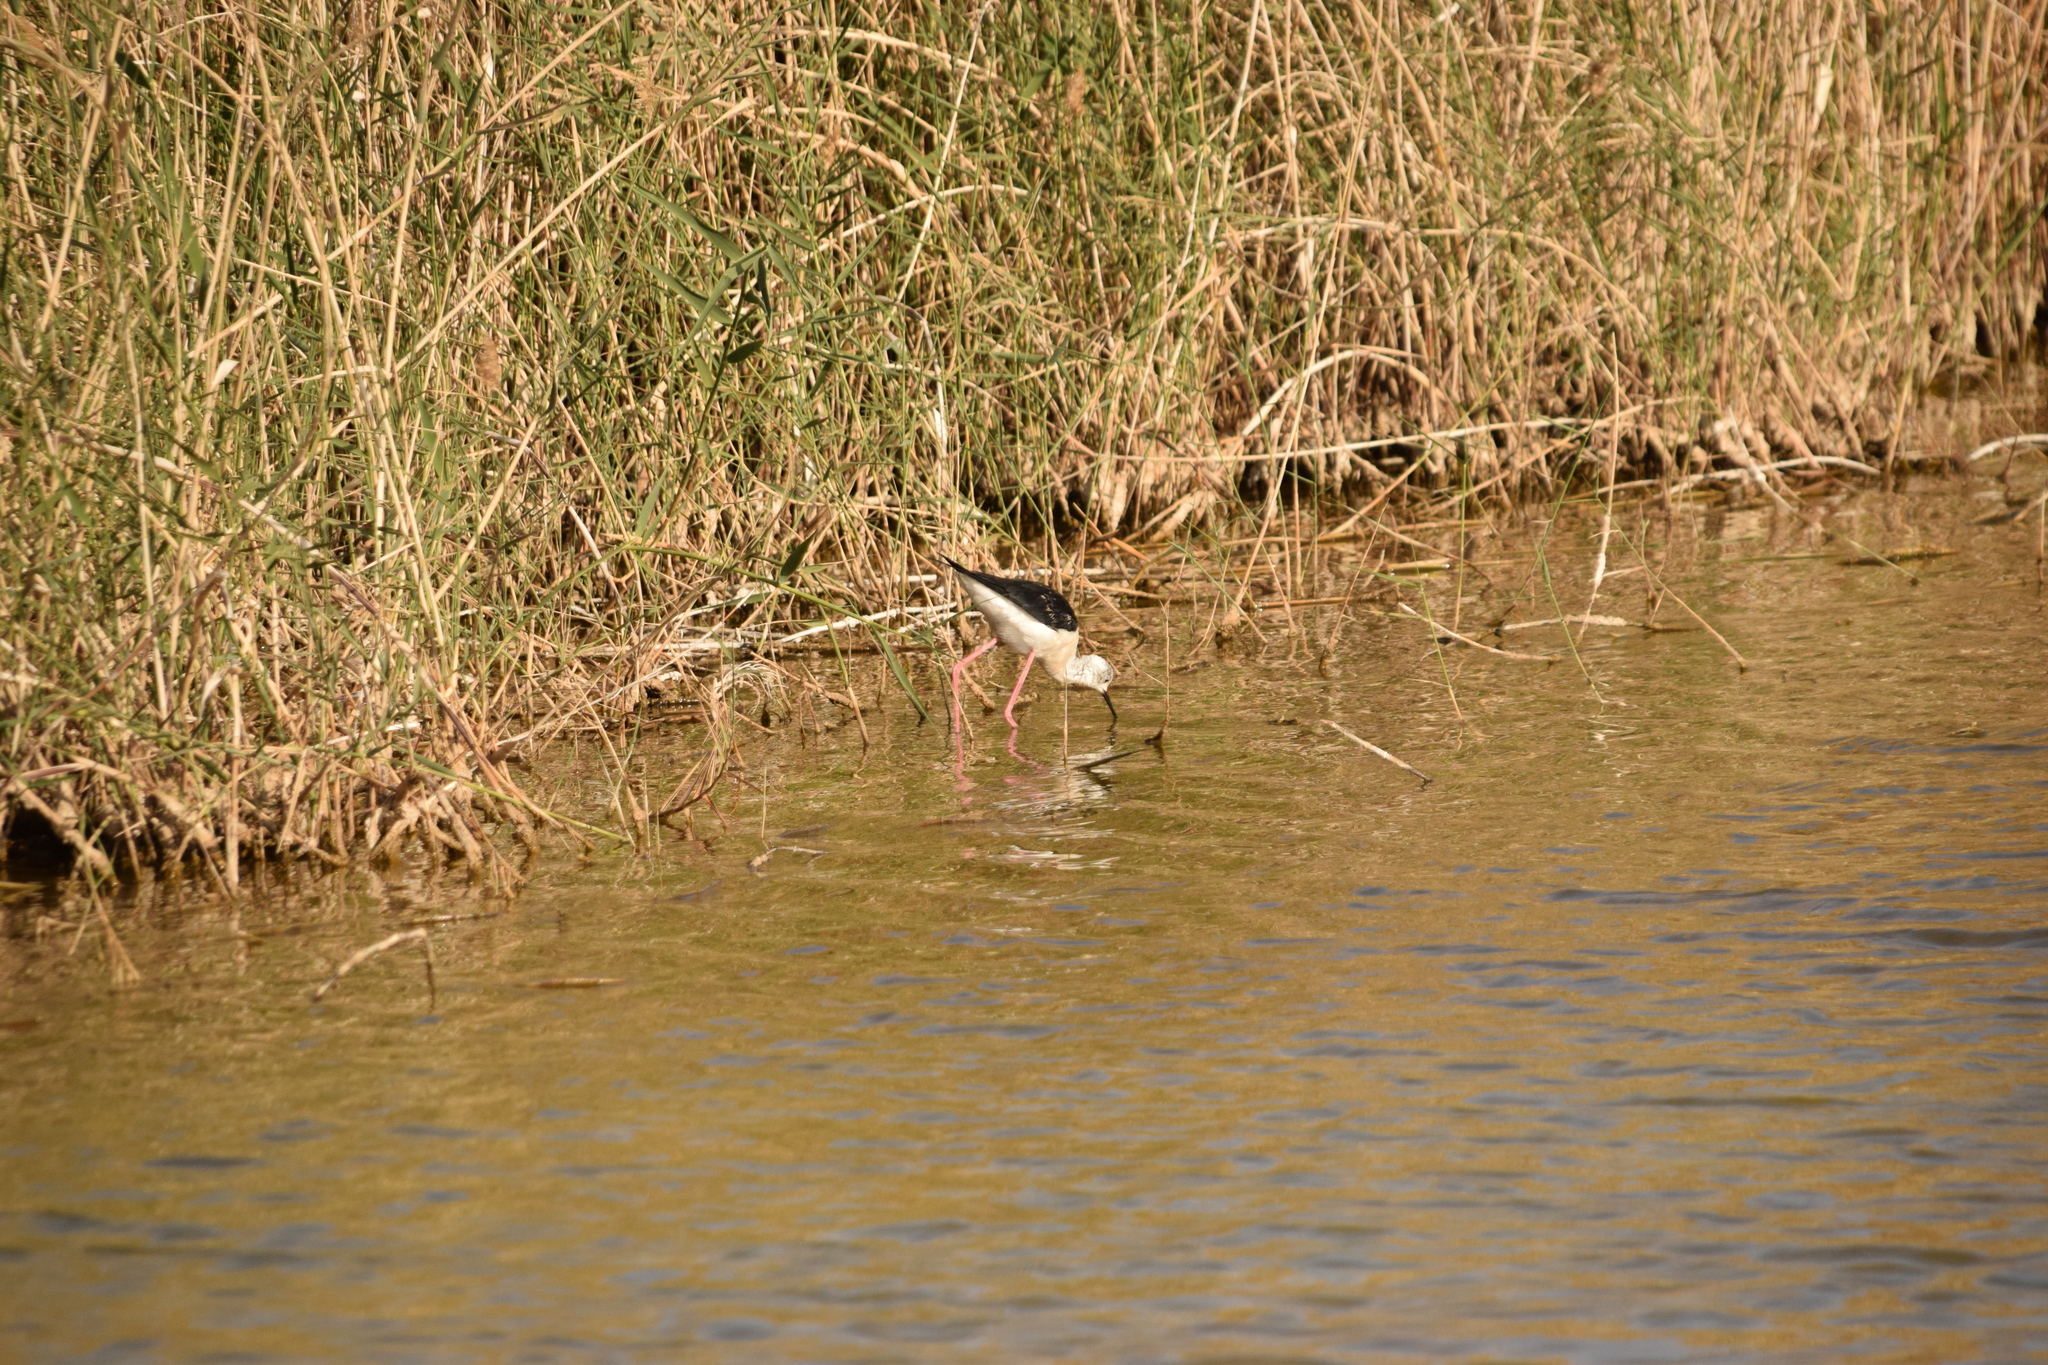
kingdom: Animalia
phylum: Chordata
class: Aves
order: Charadriiformes
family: Recurvirostridae
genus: Himantopus
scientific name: Himantopus himantopus
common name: Black-winged stilt
